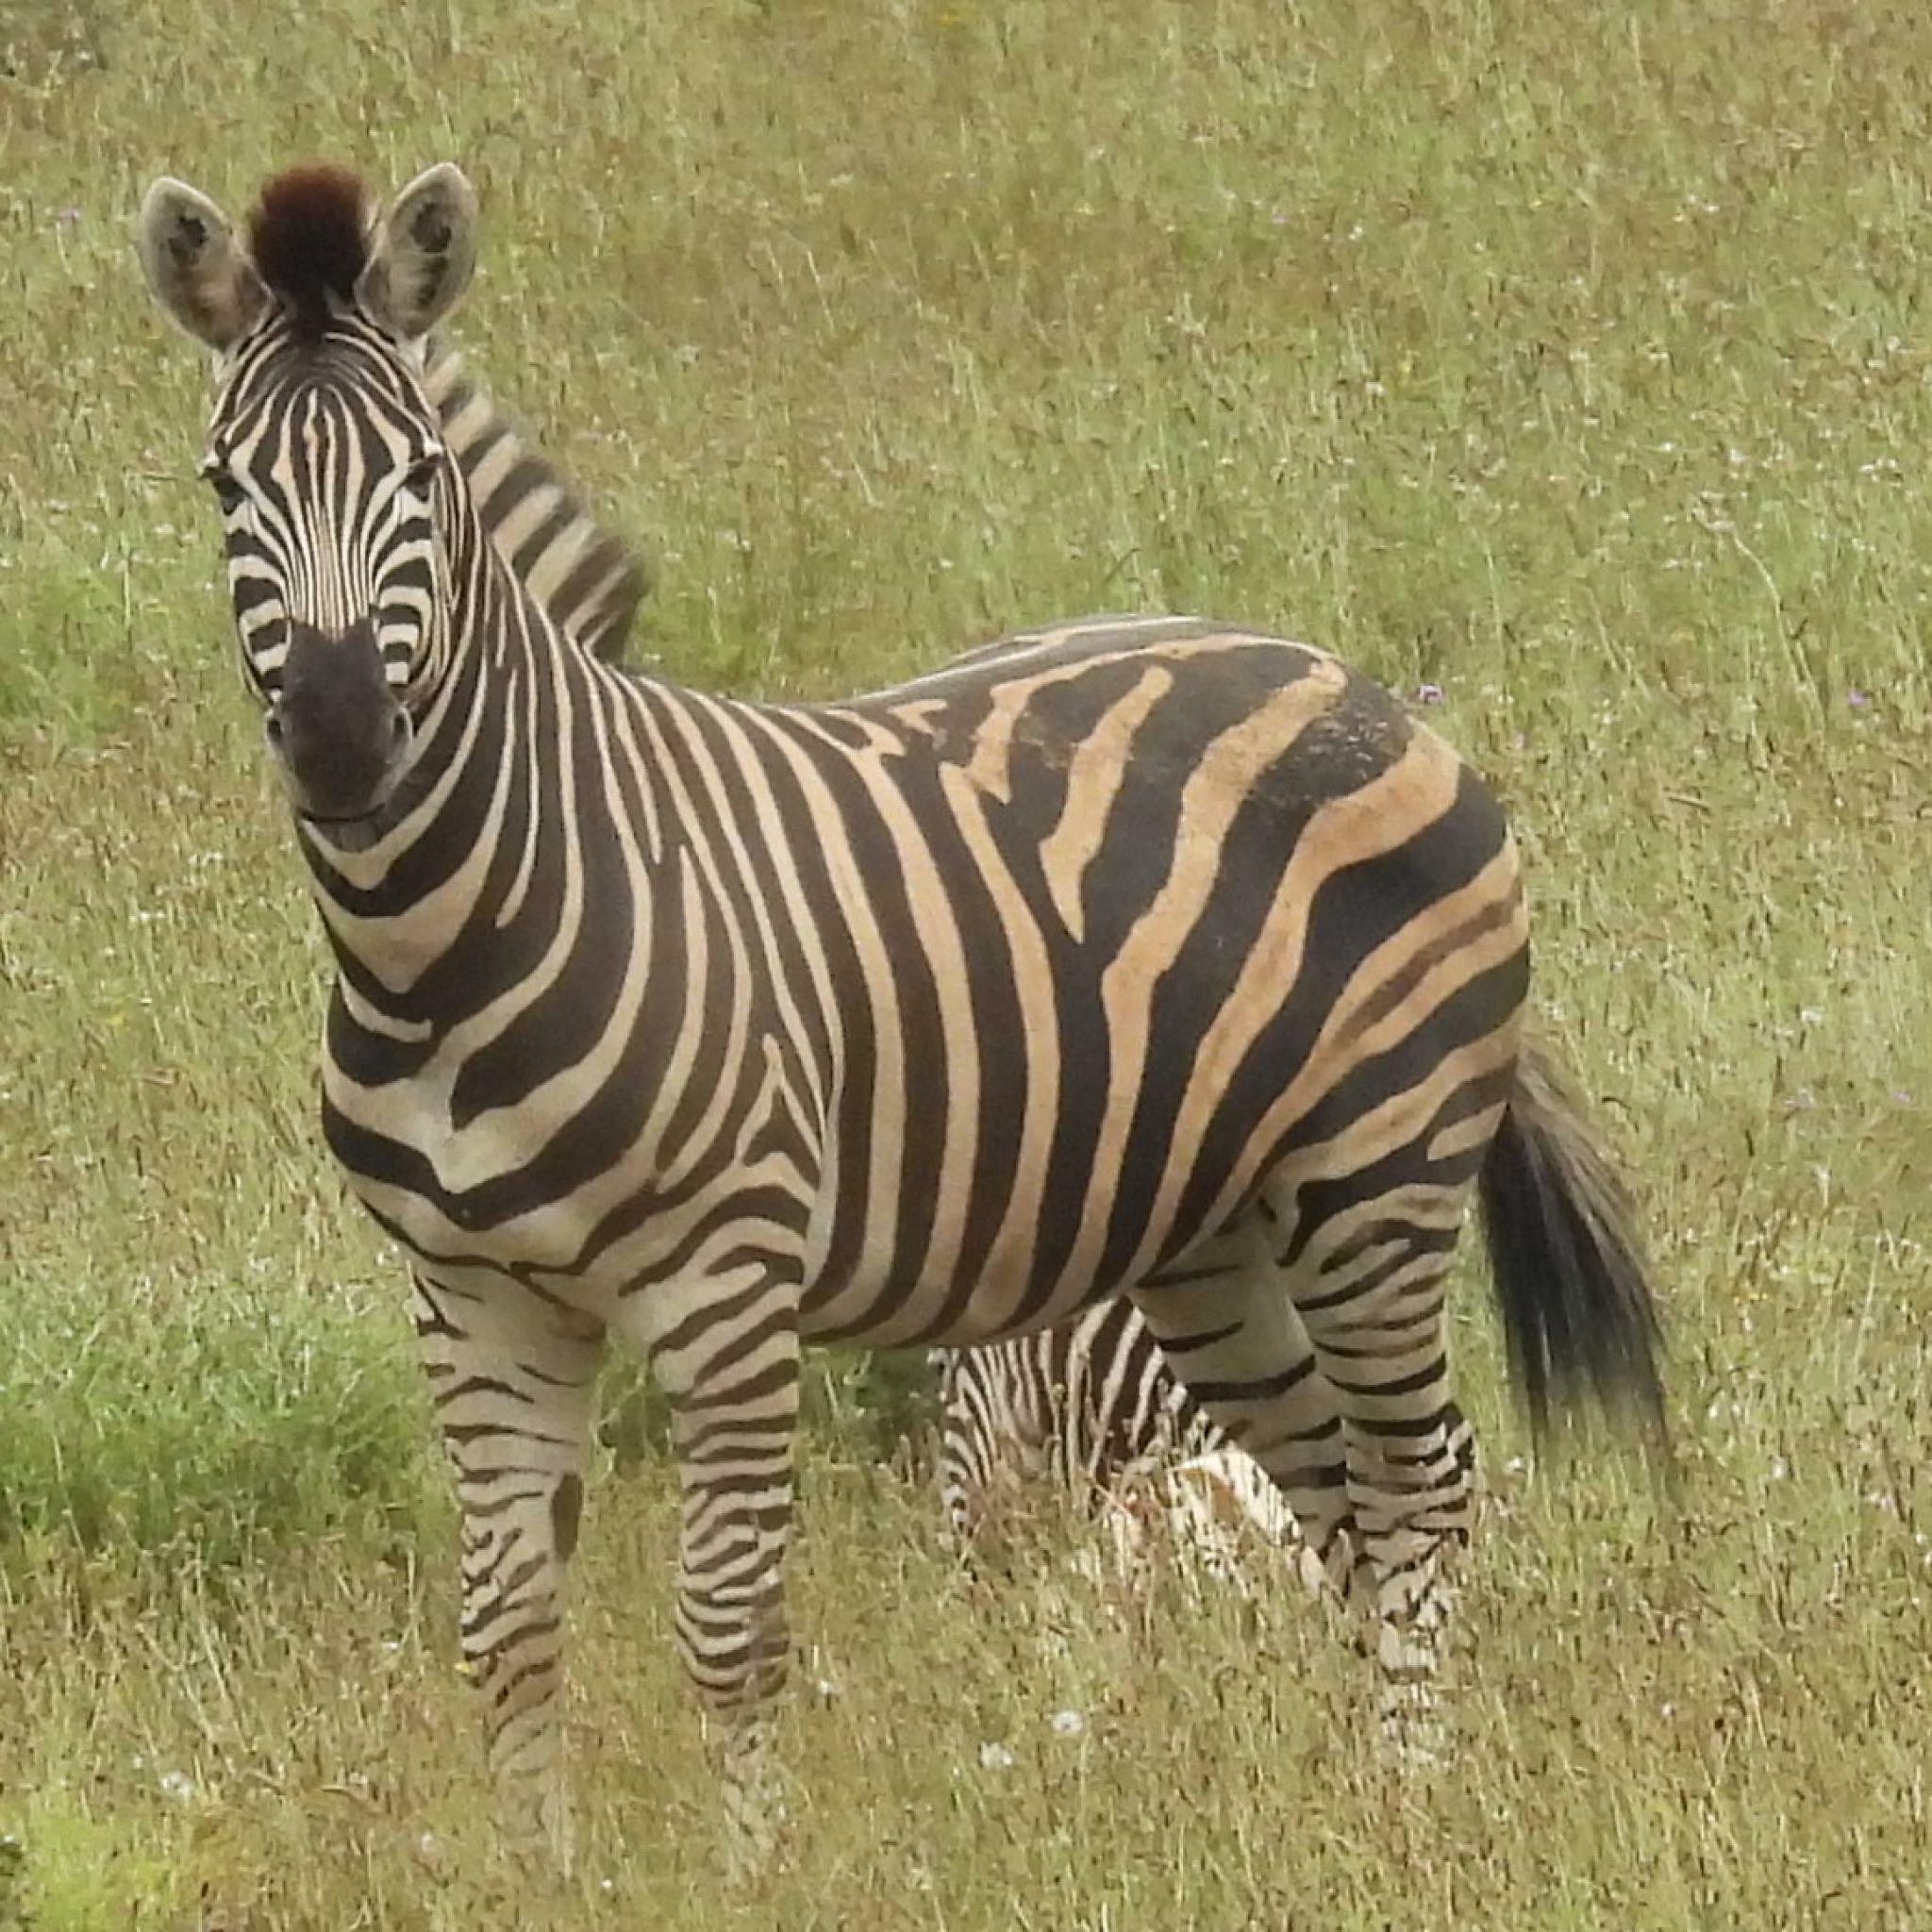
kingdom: Animalia
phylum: Chordata
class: Mammalia
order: Perissodactyla
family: Equidae
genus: Equus
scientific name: Equus quagga
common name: Plains zebra
